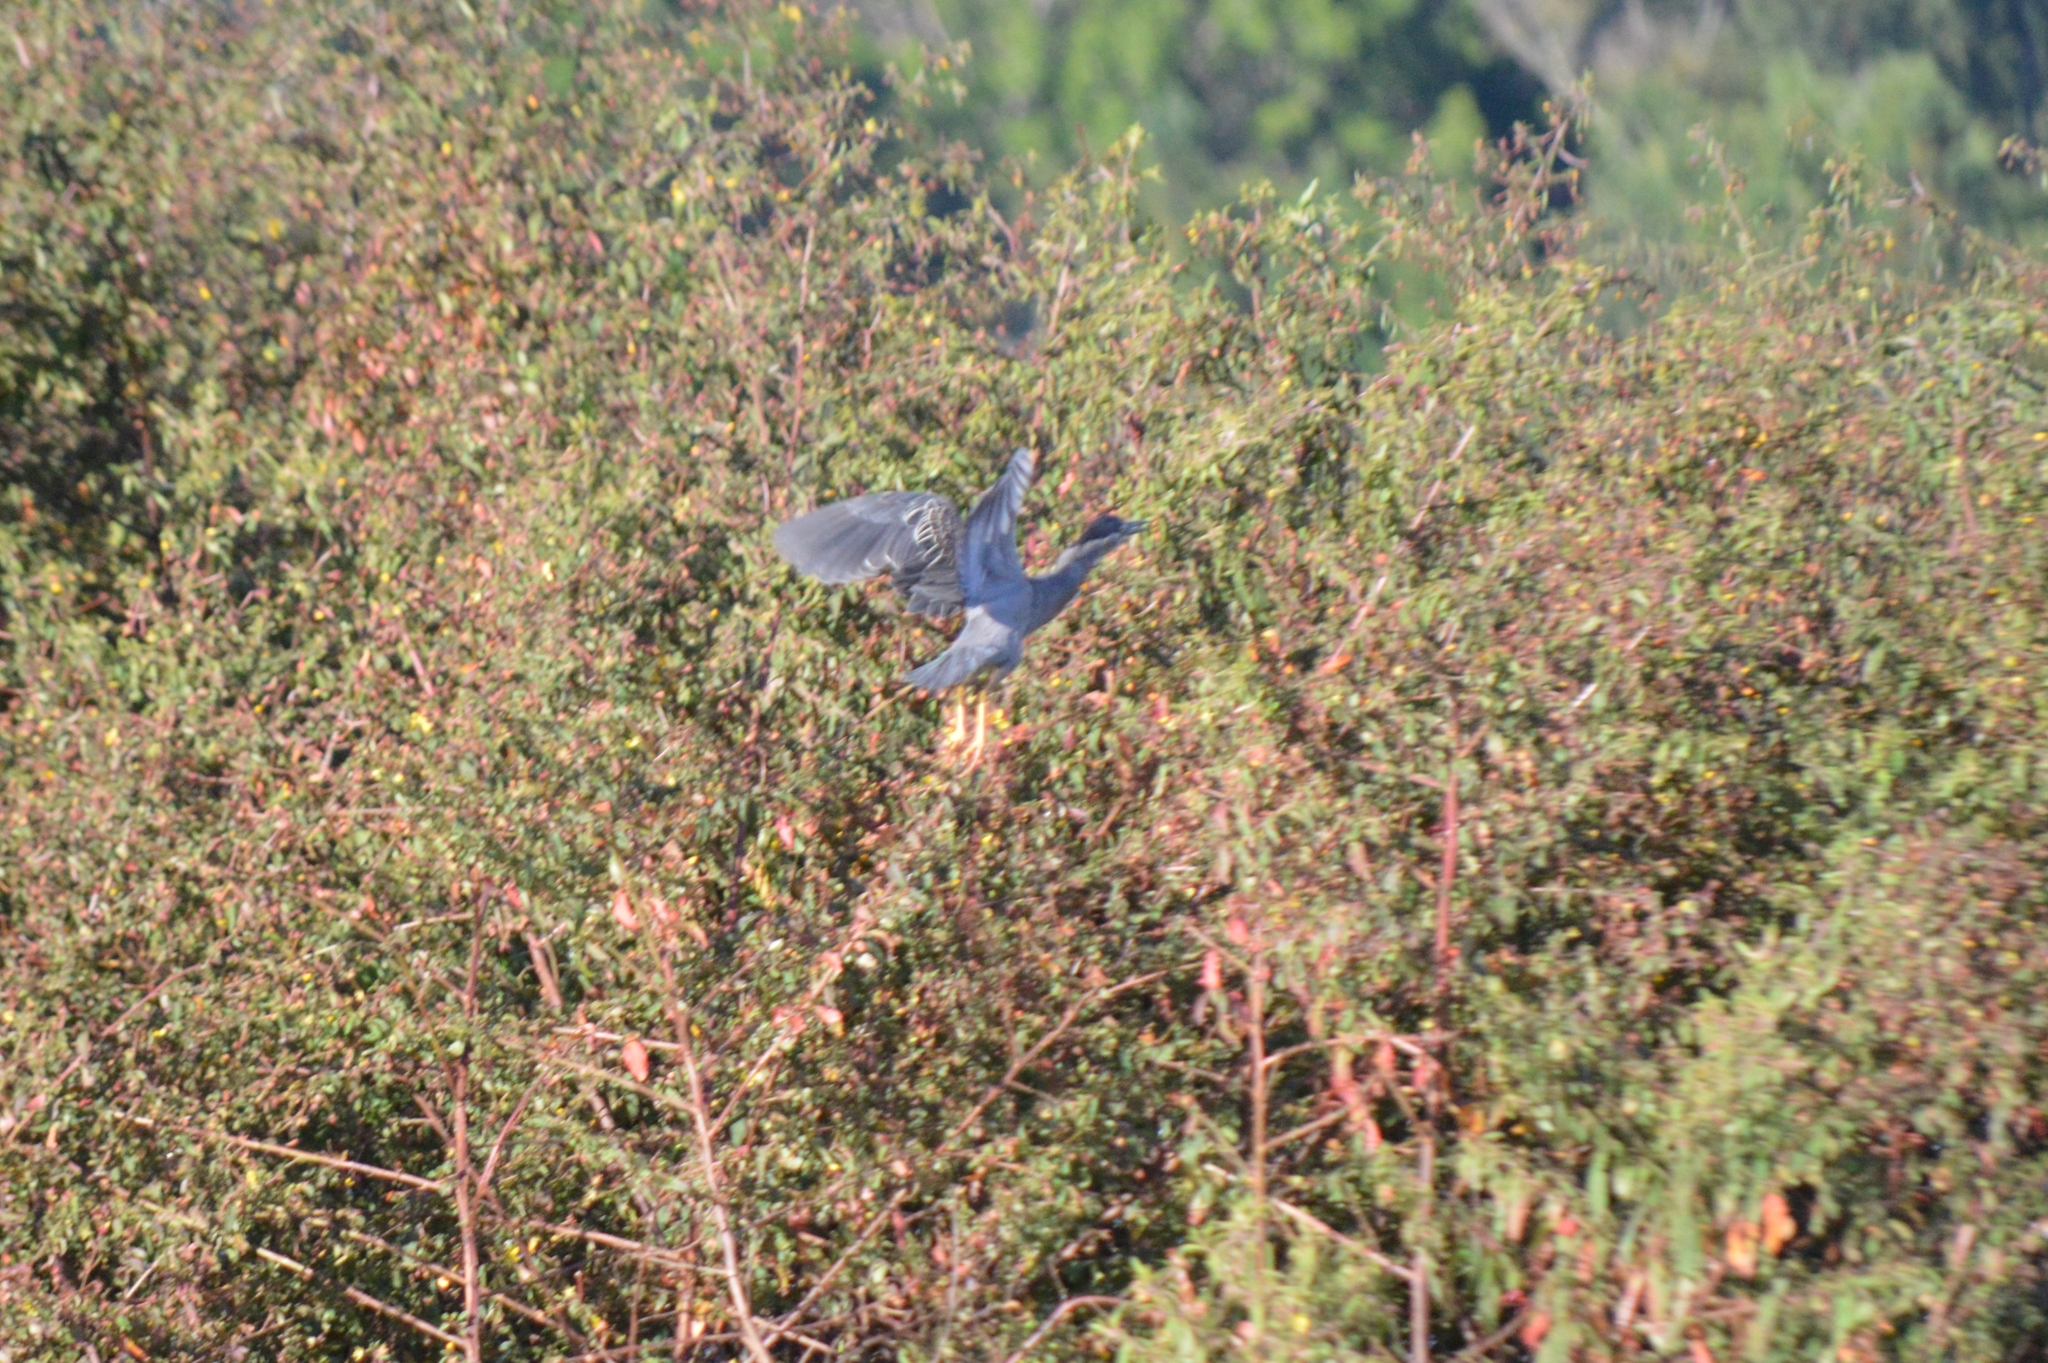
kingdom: Animalia
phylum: Chordata
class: Aves
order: Pelecaniformes
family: Ardeidae
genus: Butorides
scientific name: Butorides striata
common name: Striated heron
